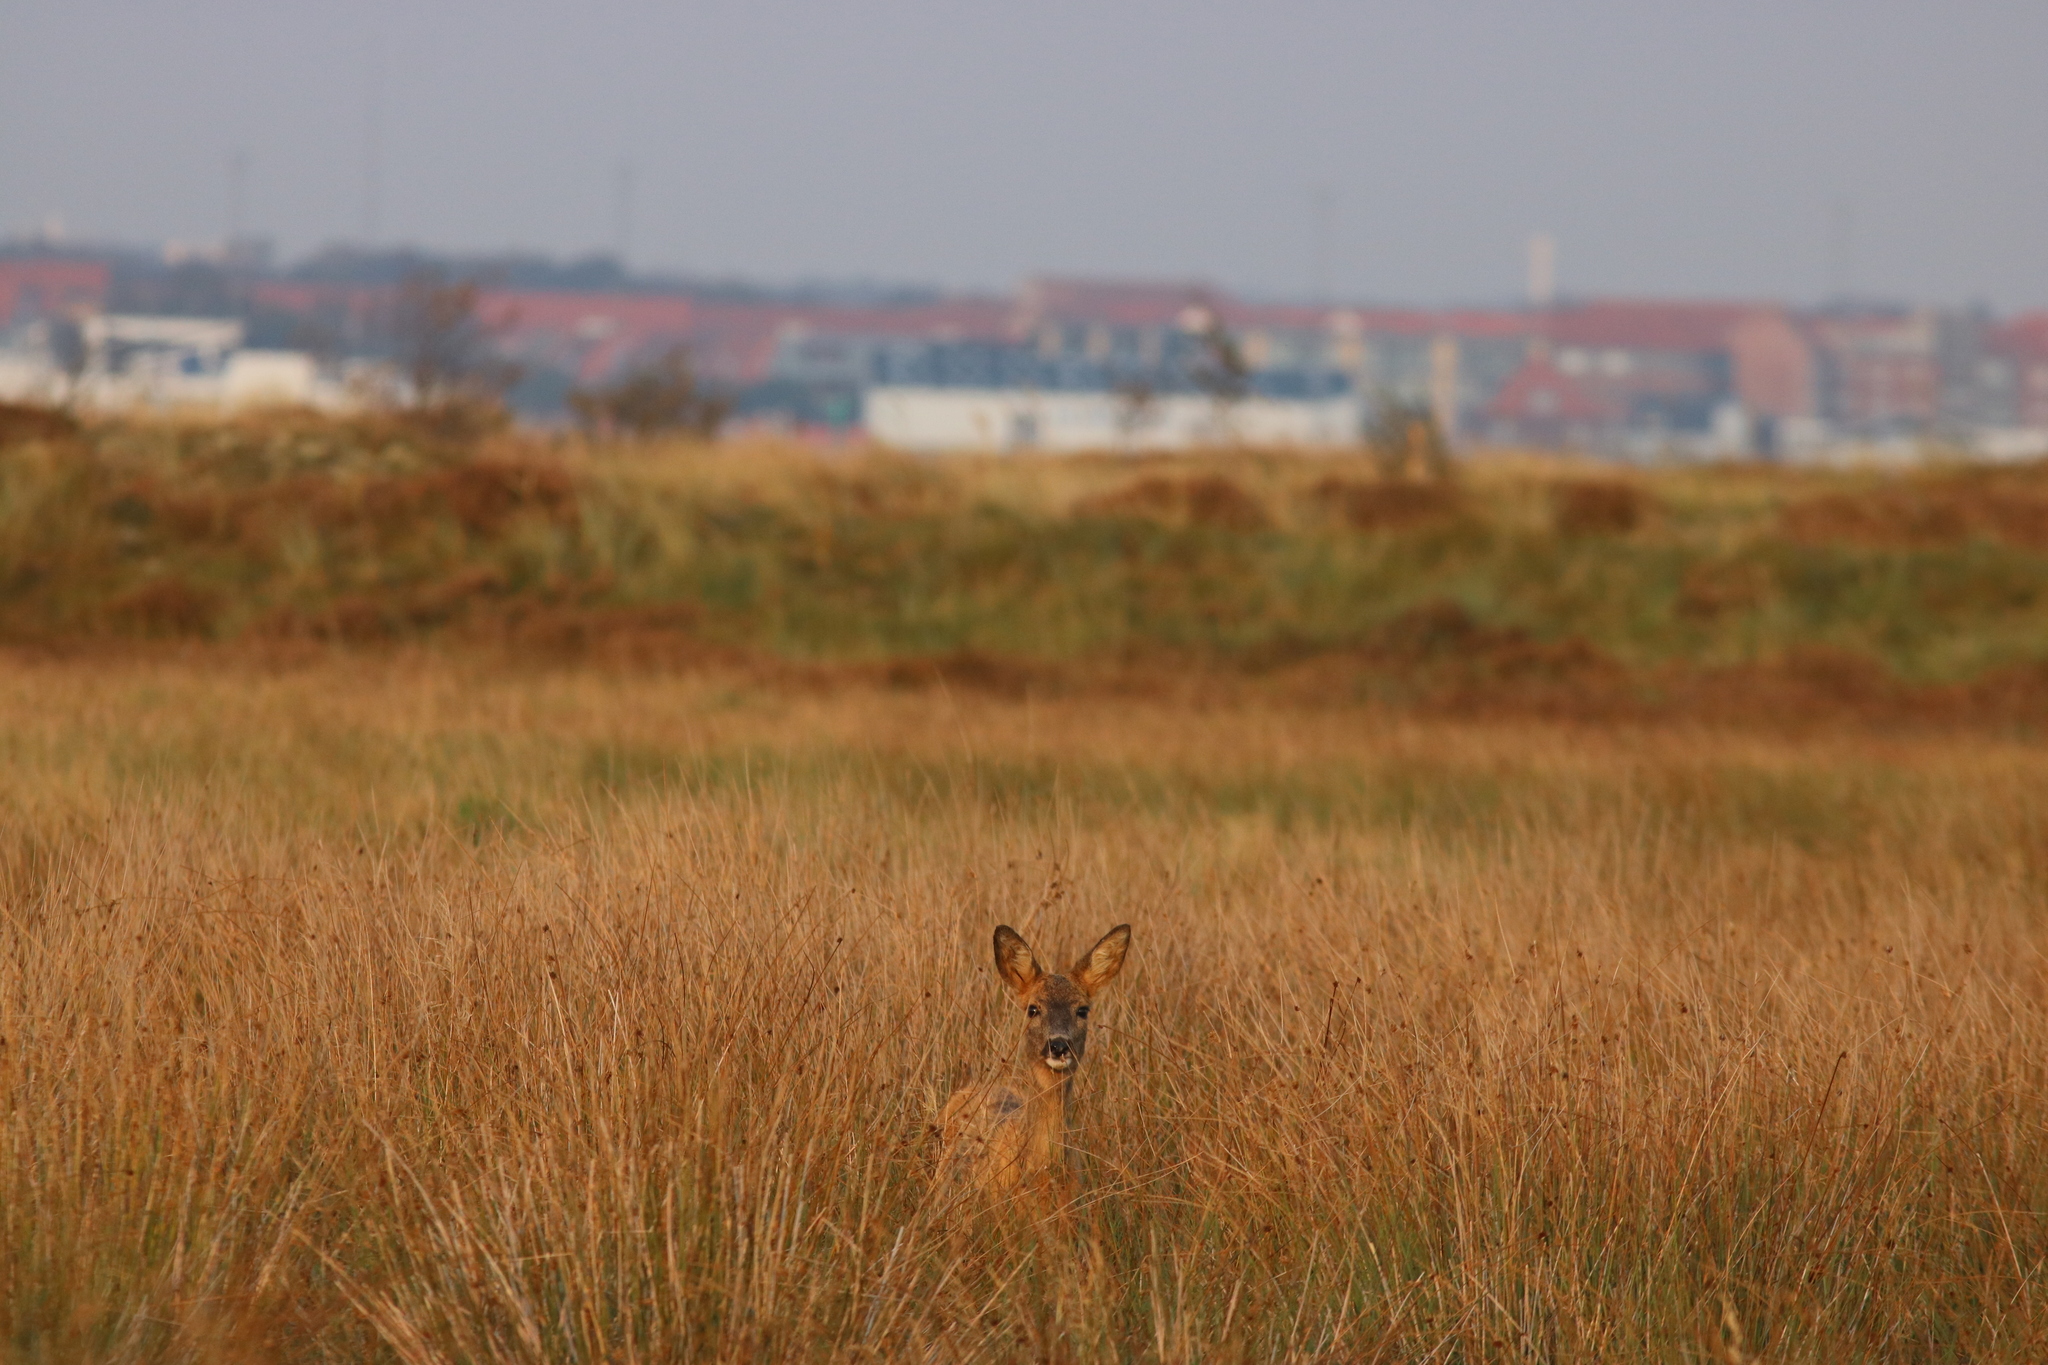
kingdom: Animalia
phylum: Chordata
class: Mammalia
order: Artiodactyla
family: Cervidae
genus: Capreolus
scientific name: Capreolus capreolus
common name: Western roe deer
